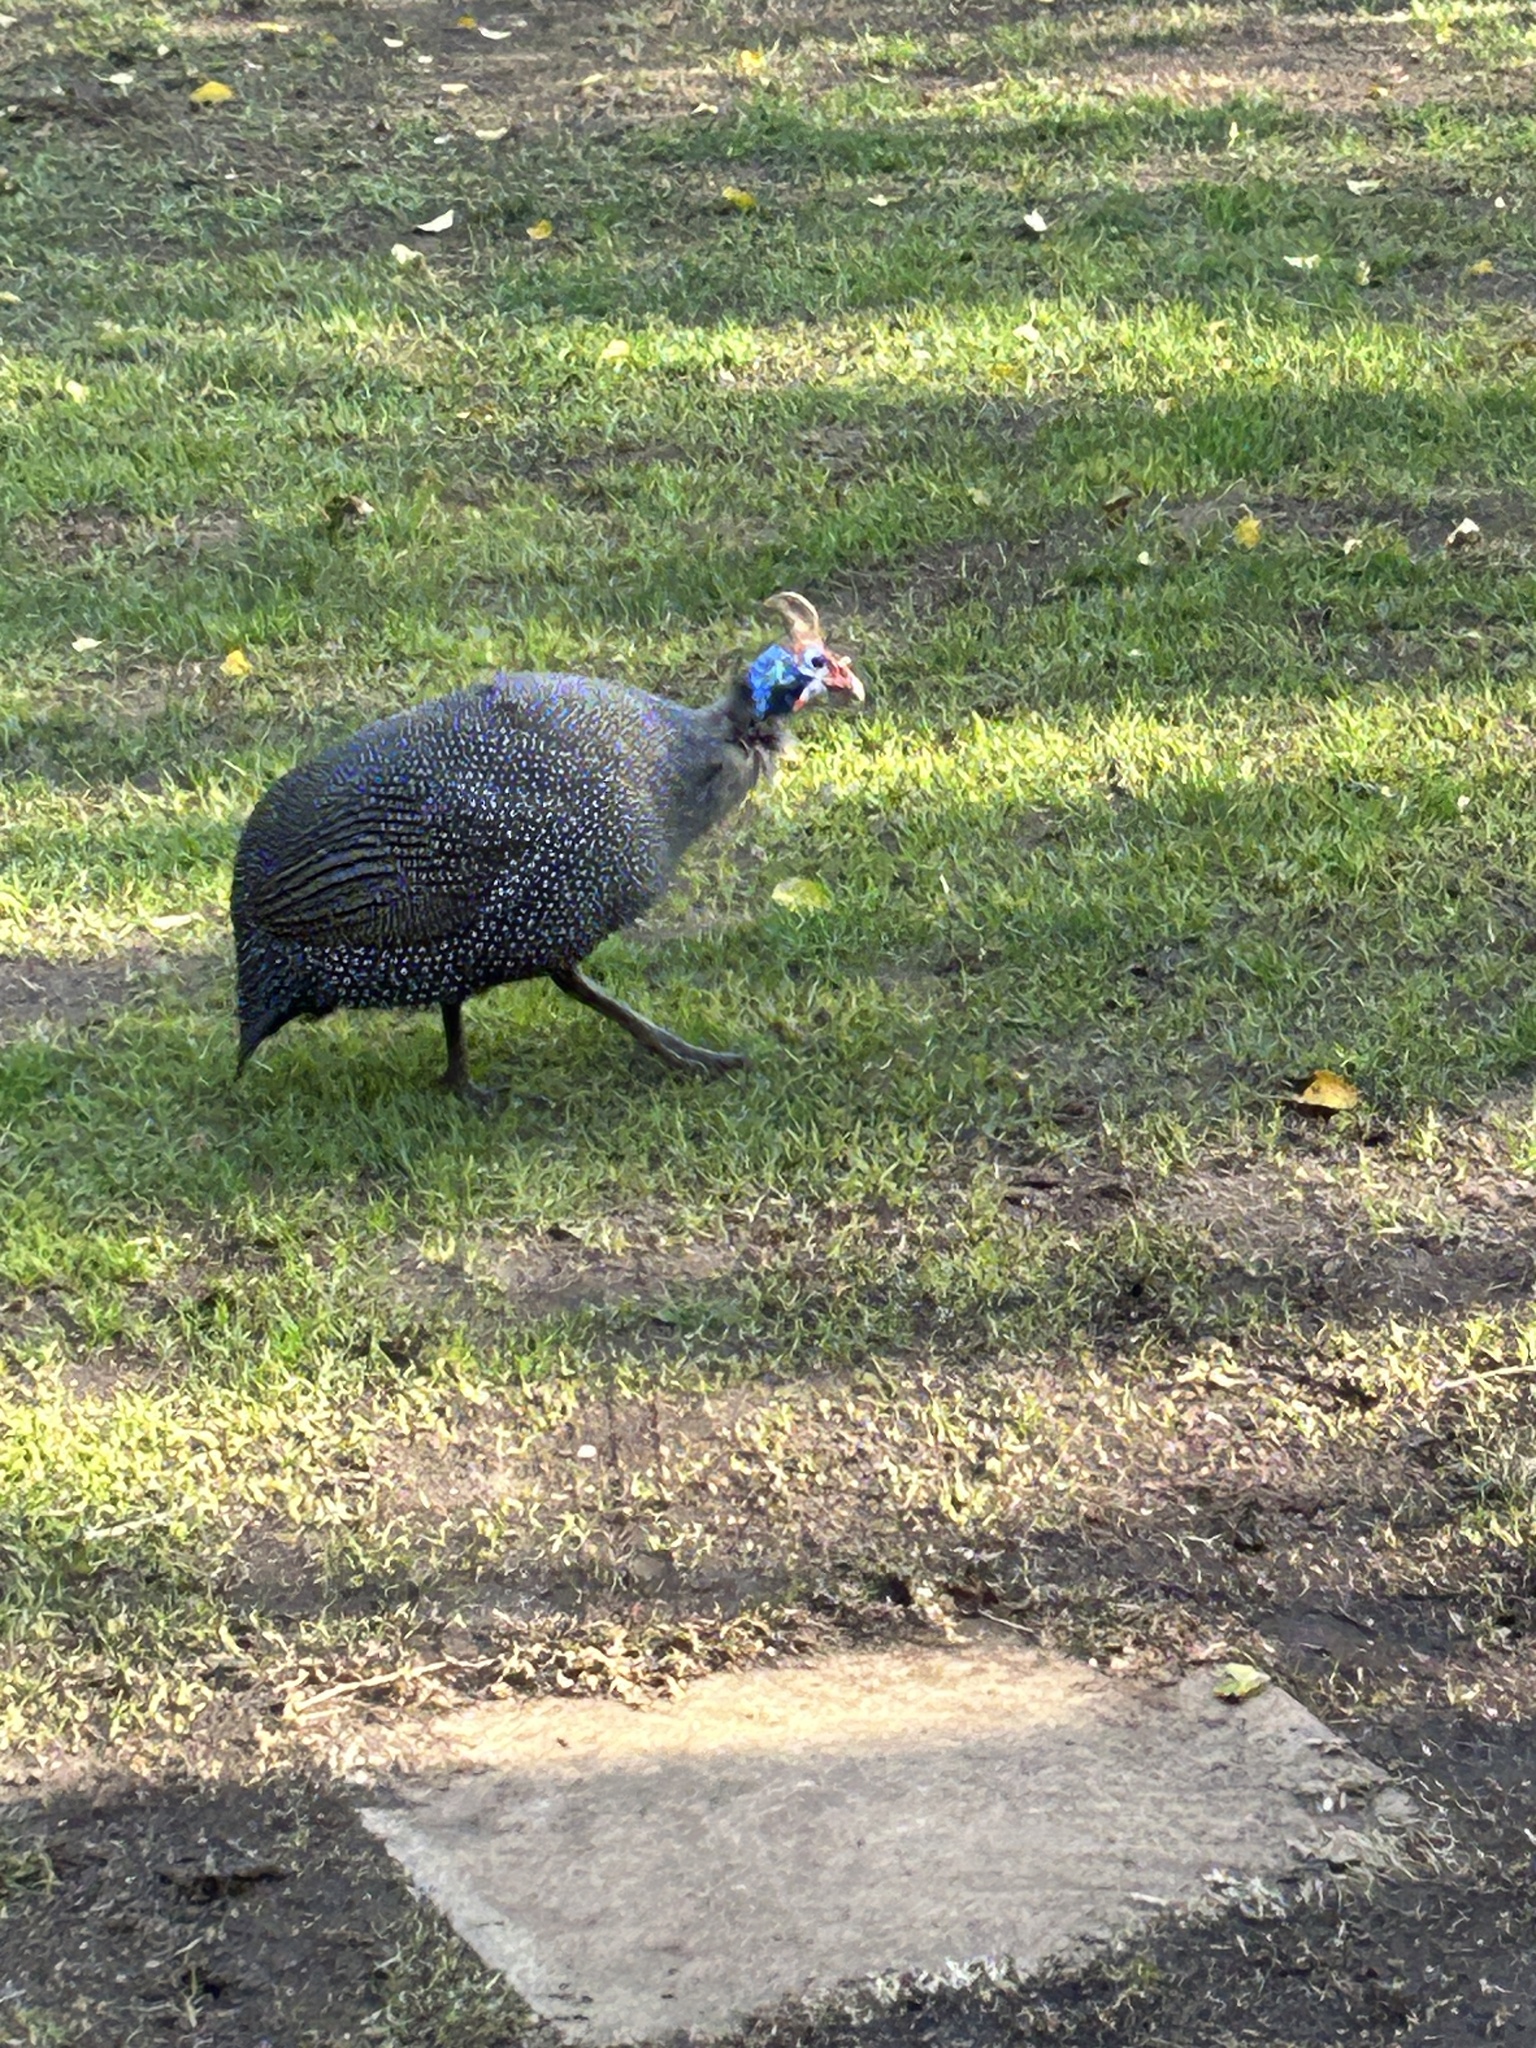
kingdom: Animalia
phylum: Chordata
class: Aves
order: Galliformes
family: Numididae
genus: Numida
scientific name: Numida meleagris
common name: Helmeted guineafowl
